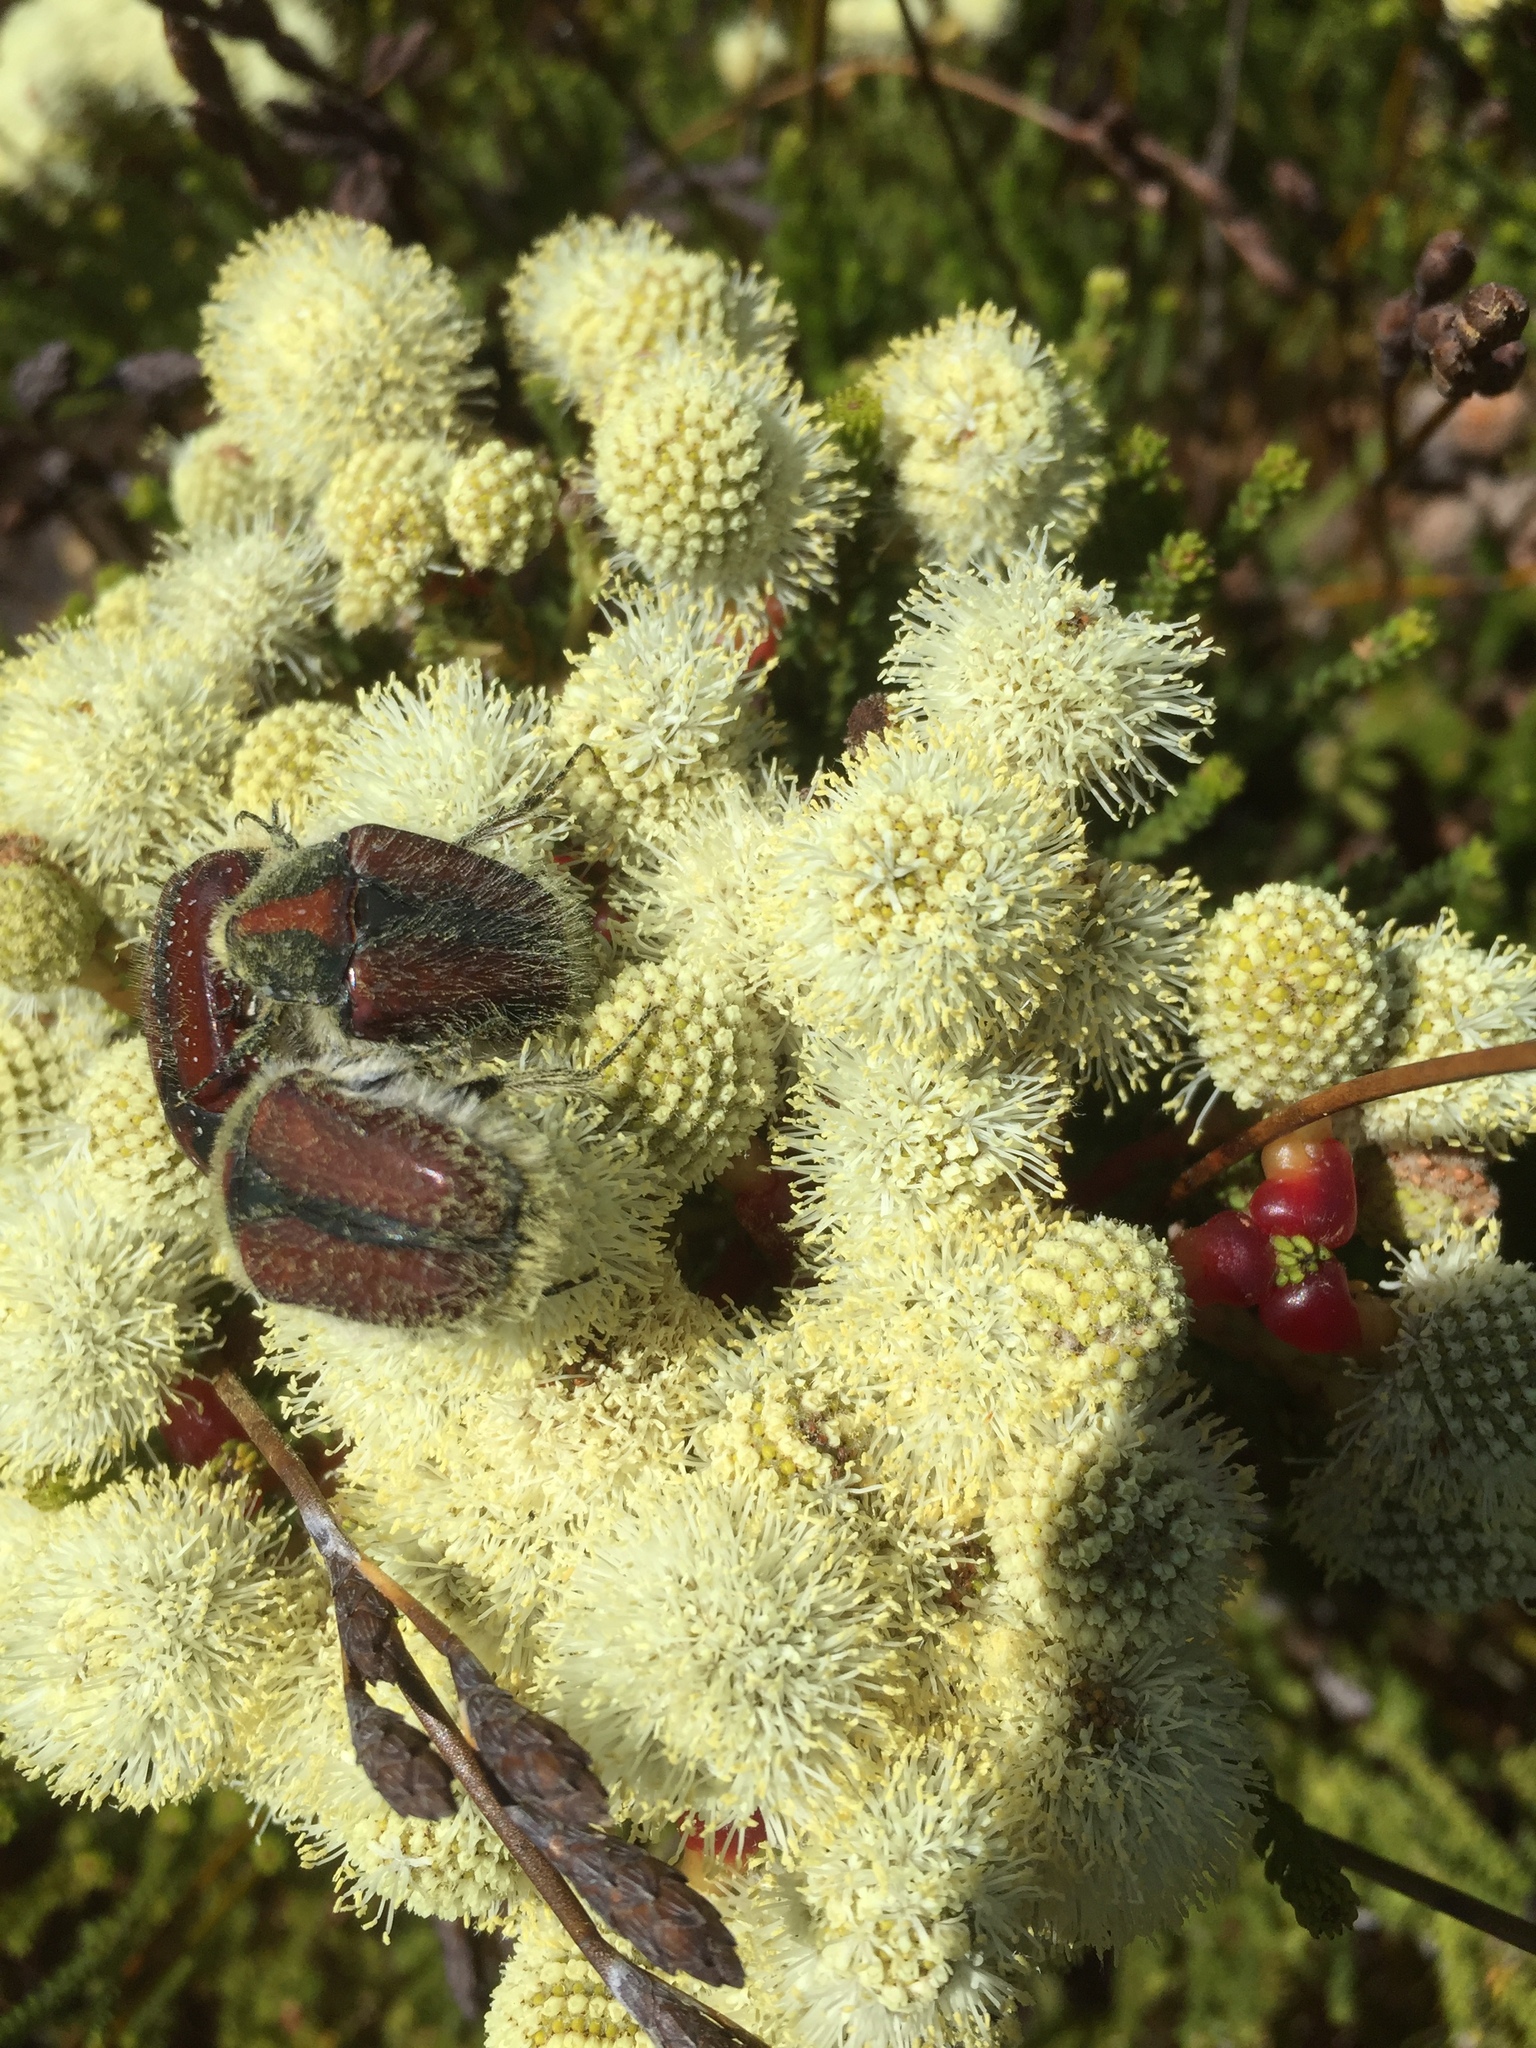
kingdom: Animalia
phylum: Arthropoda
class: Insecta
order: Coleoptera
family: Scarabaeidae
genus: Trichostetha
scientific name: Trichostetha capensis
